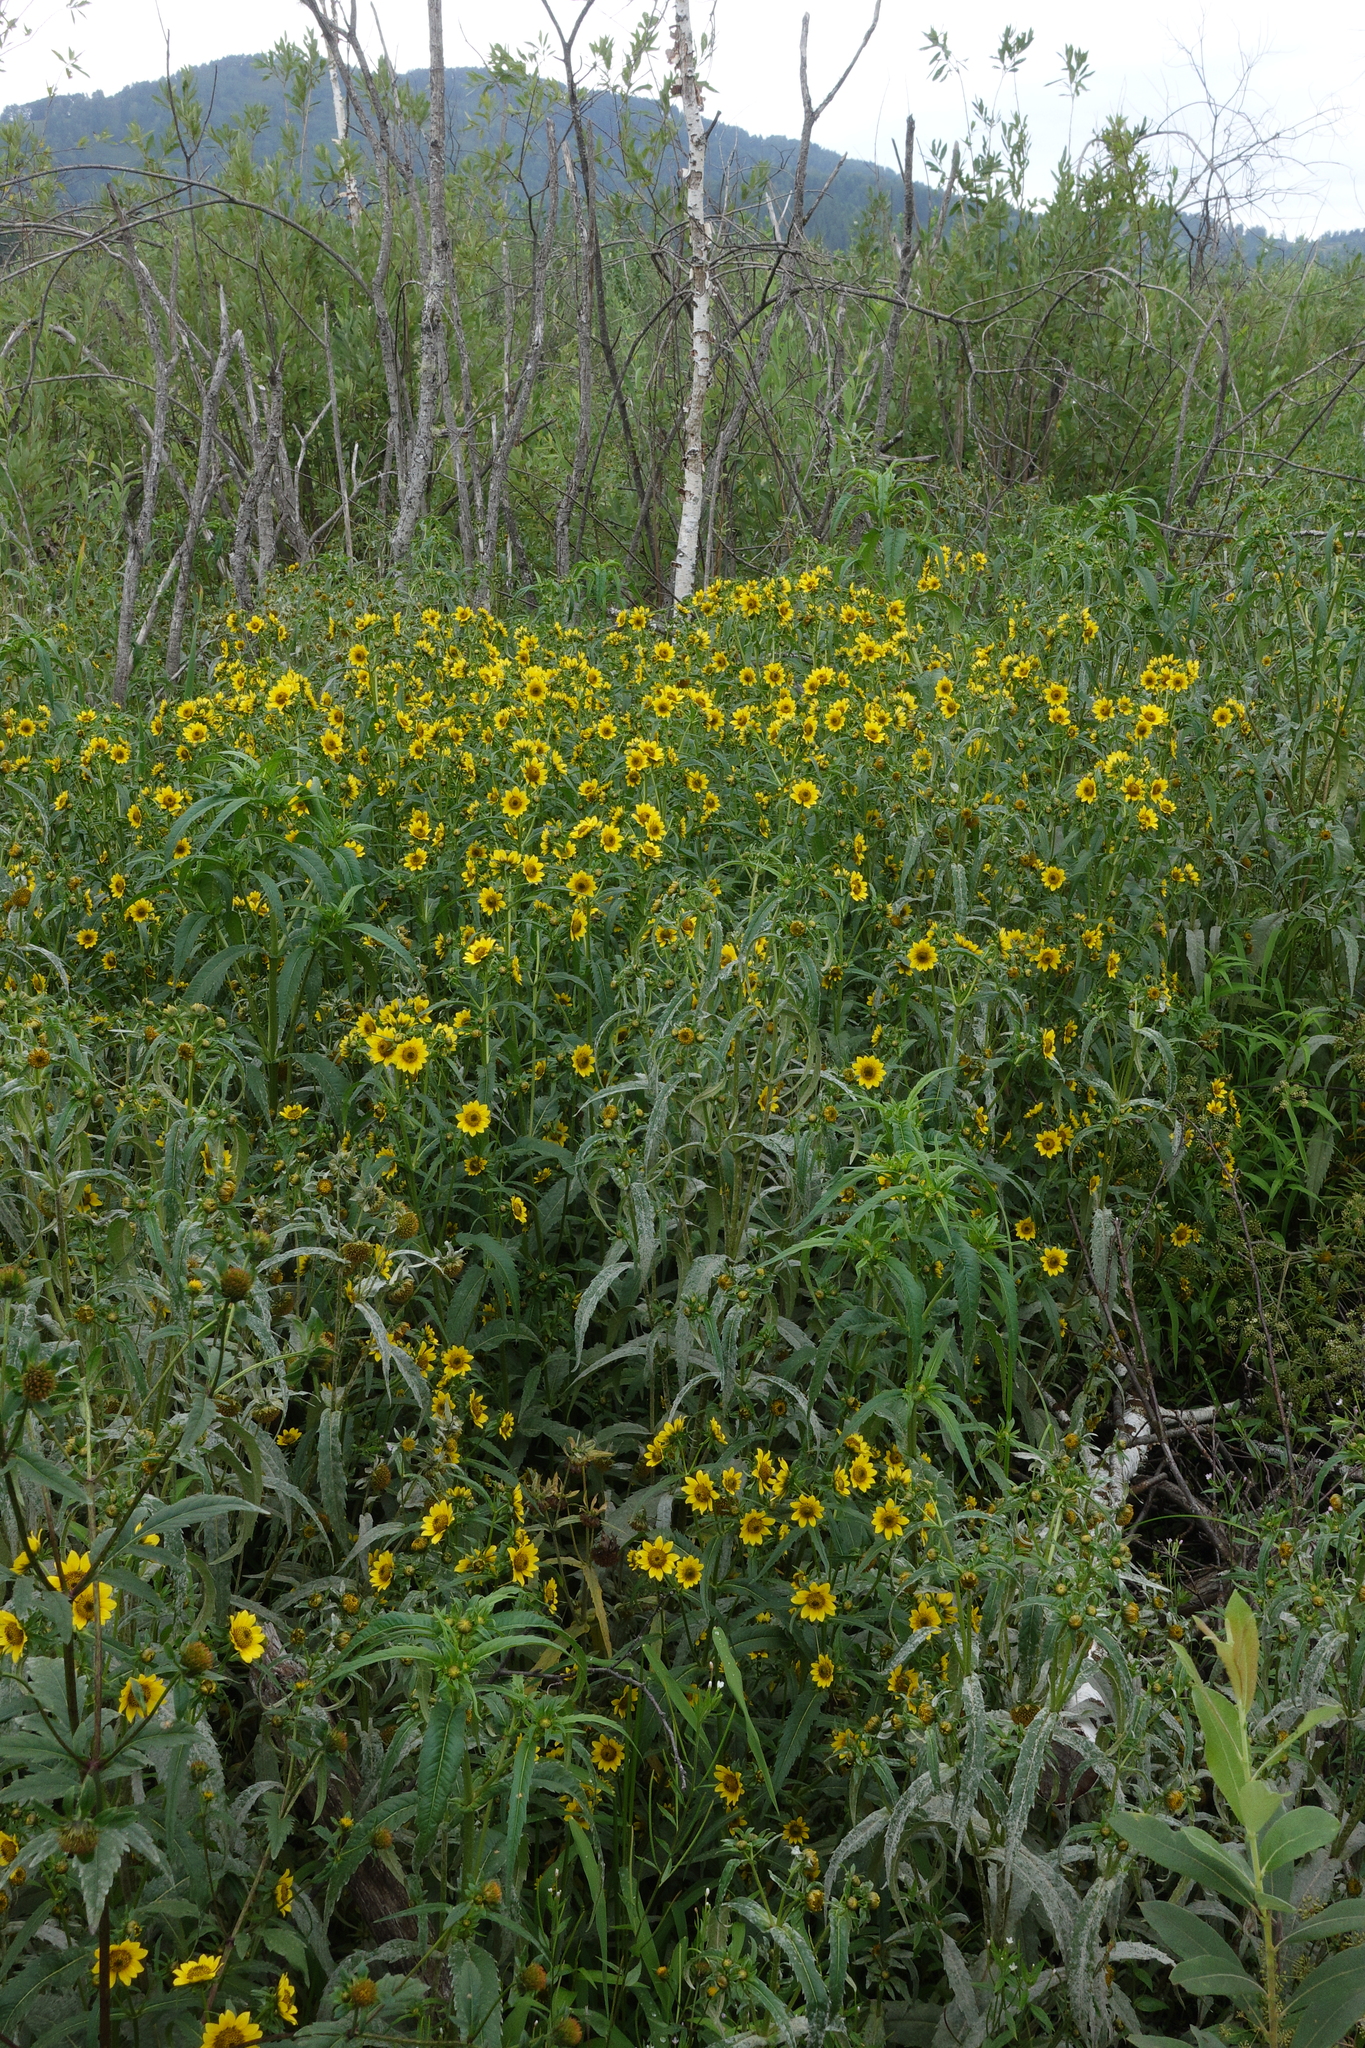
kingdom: Plantae
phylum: Tracheophyta
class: Magnoliopsida
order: Asterales
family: Asteraceae
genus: Bidens
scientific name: Bidens cernua
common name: Nodding bur-marigold
